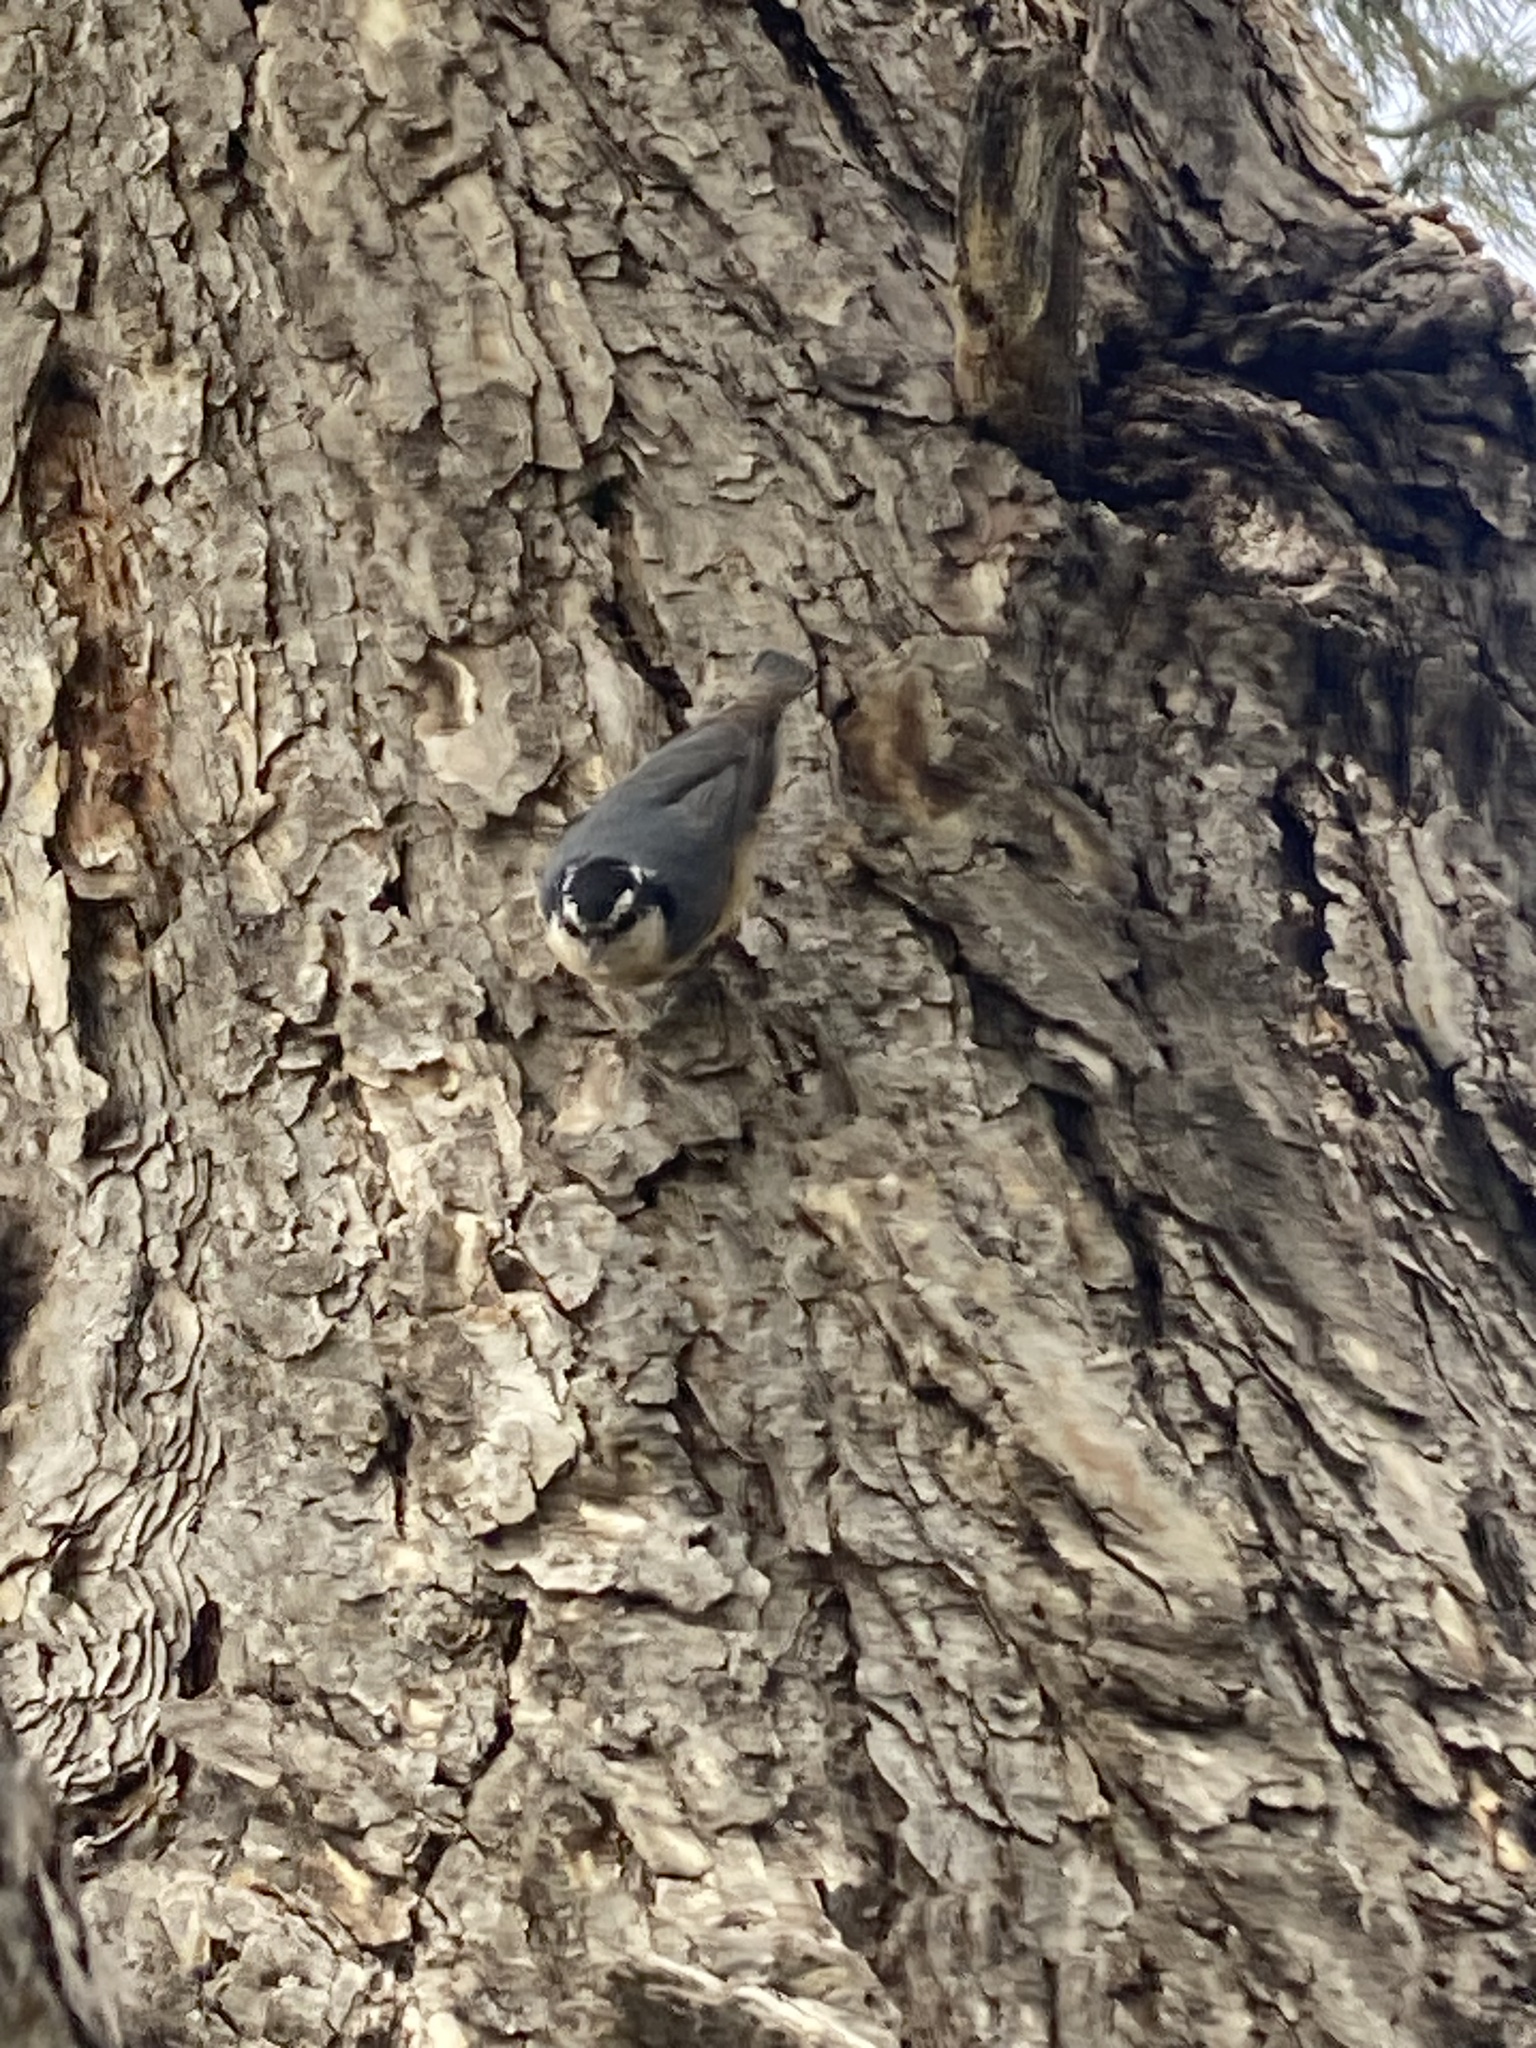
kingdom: Animalia
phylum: Chordata
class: Aves
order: Passeriformes
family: Sittidae
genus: Sitta
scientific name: Sitta canadensis
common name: Red-breasted nuthatch
